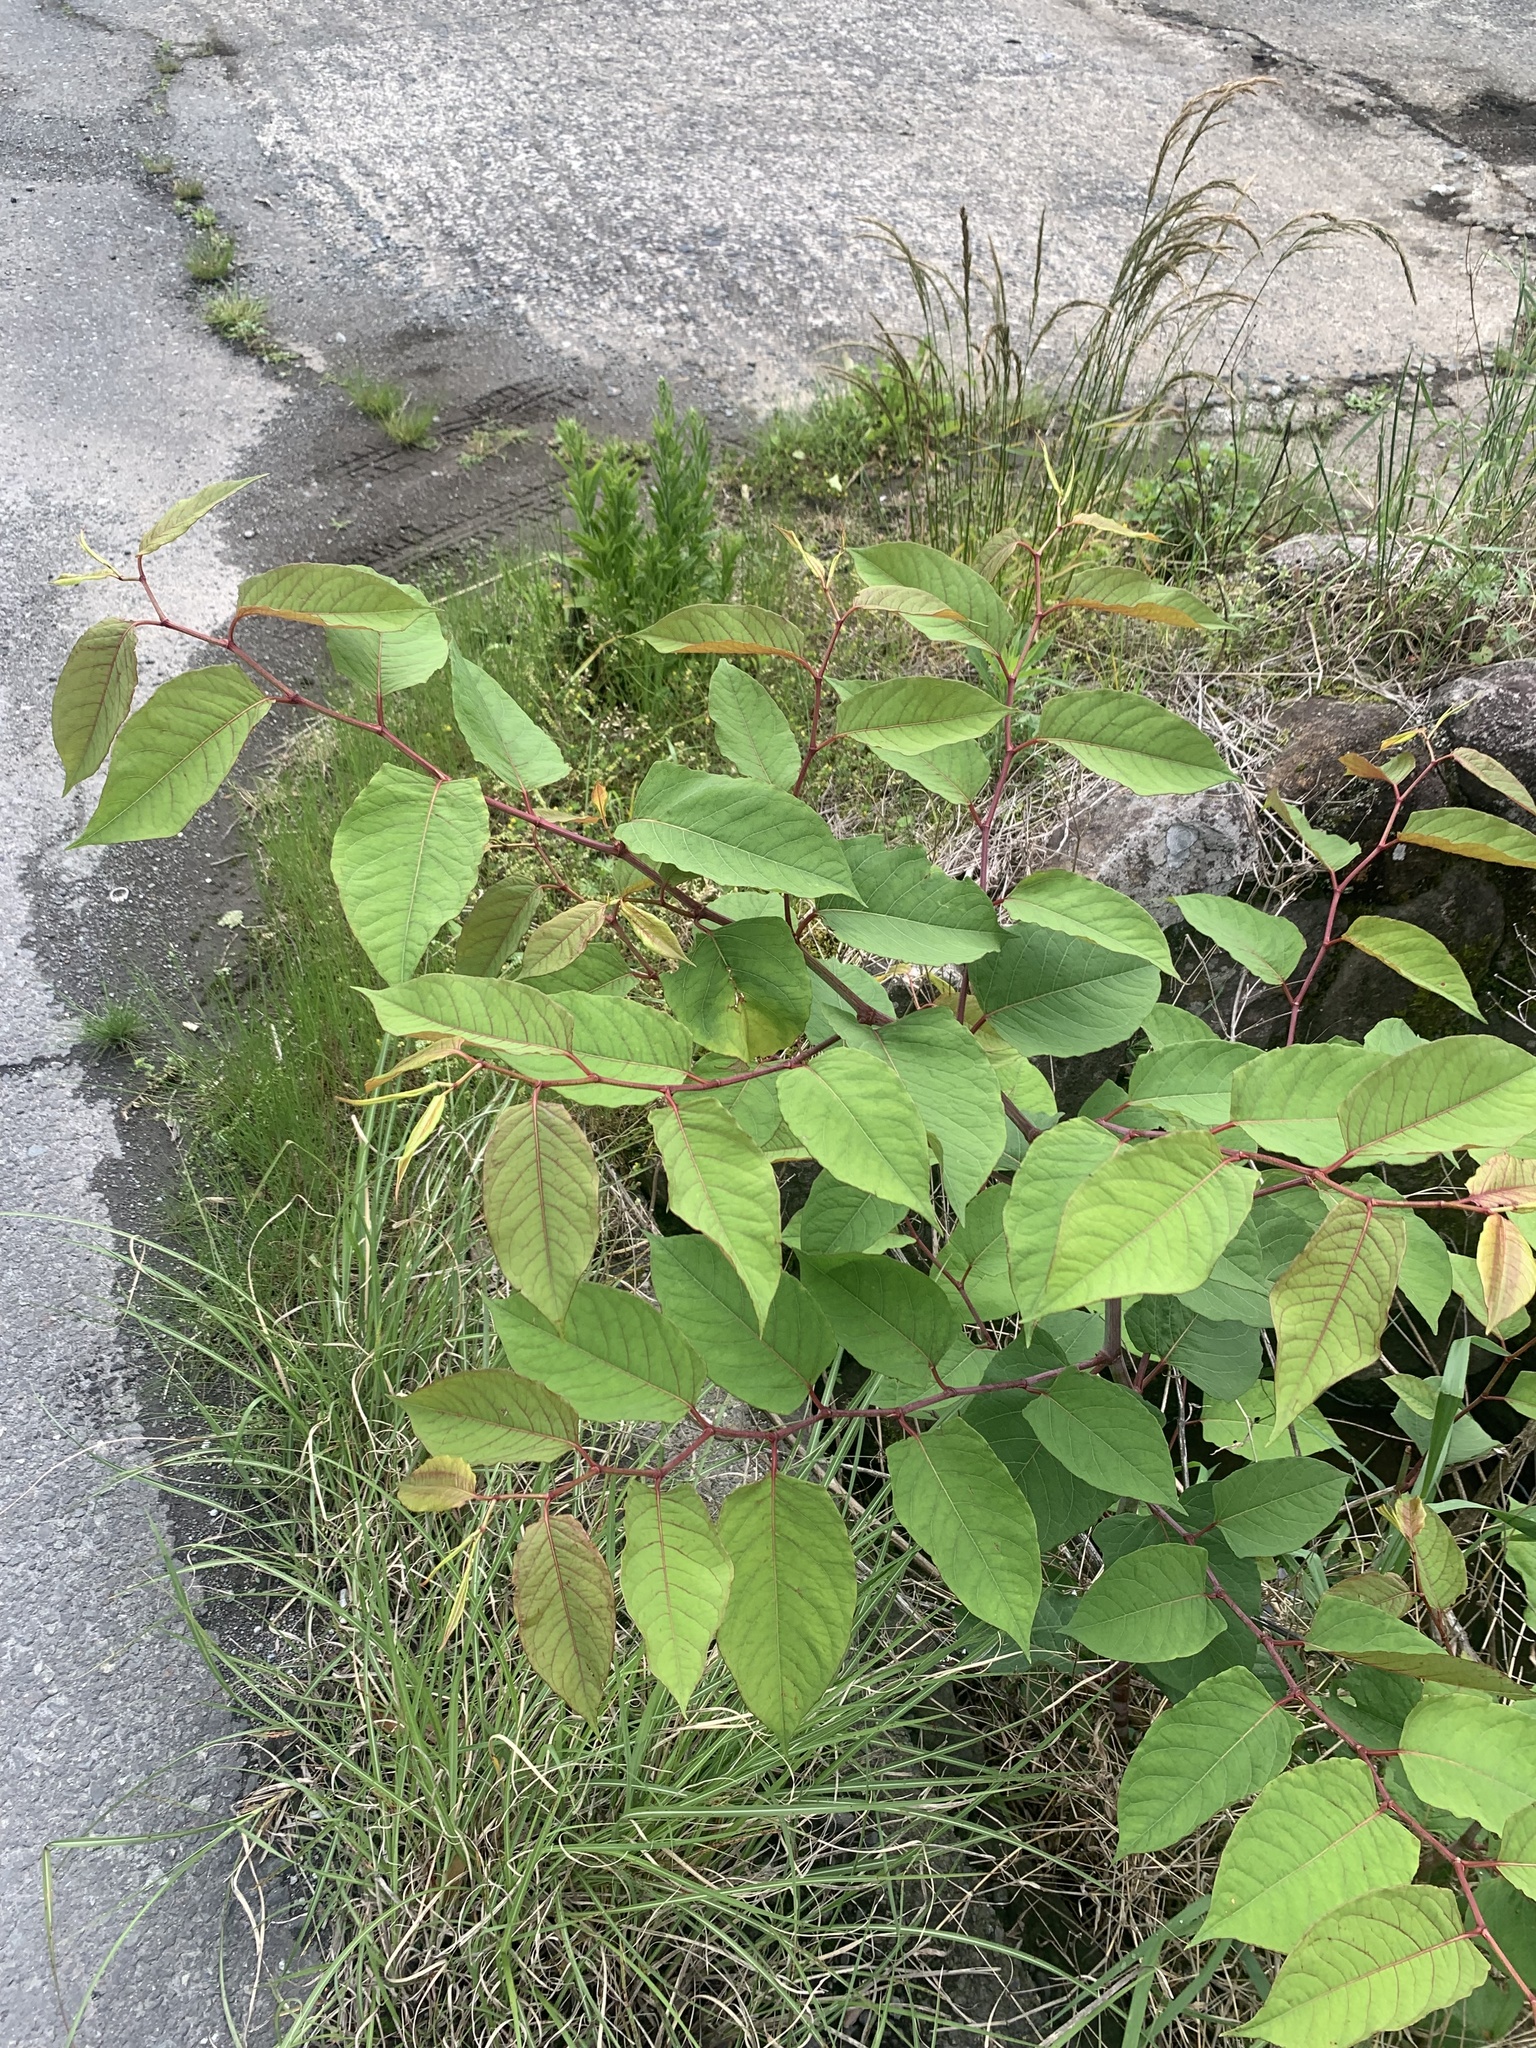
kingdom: Plantae
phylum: Tracheophyta
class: Magnoliopsida
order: Caryophyllales
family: Polygonaceae
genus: Reynoutria
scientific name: Reynoutria japonica
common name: Japanese knotweed
